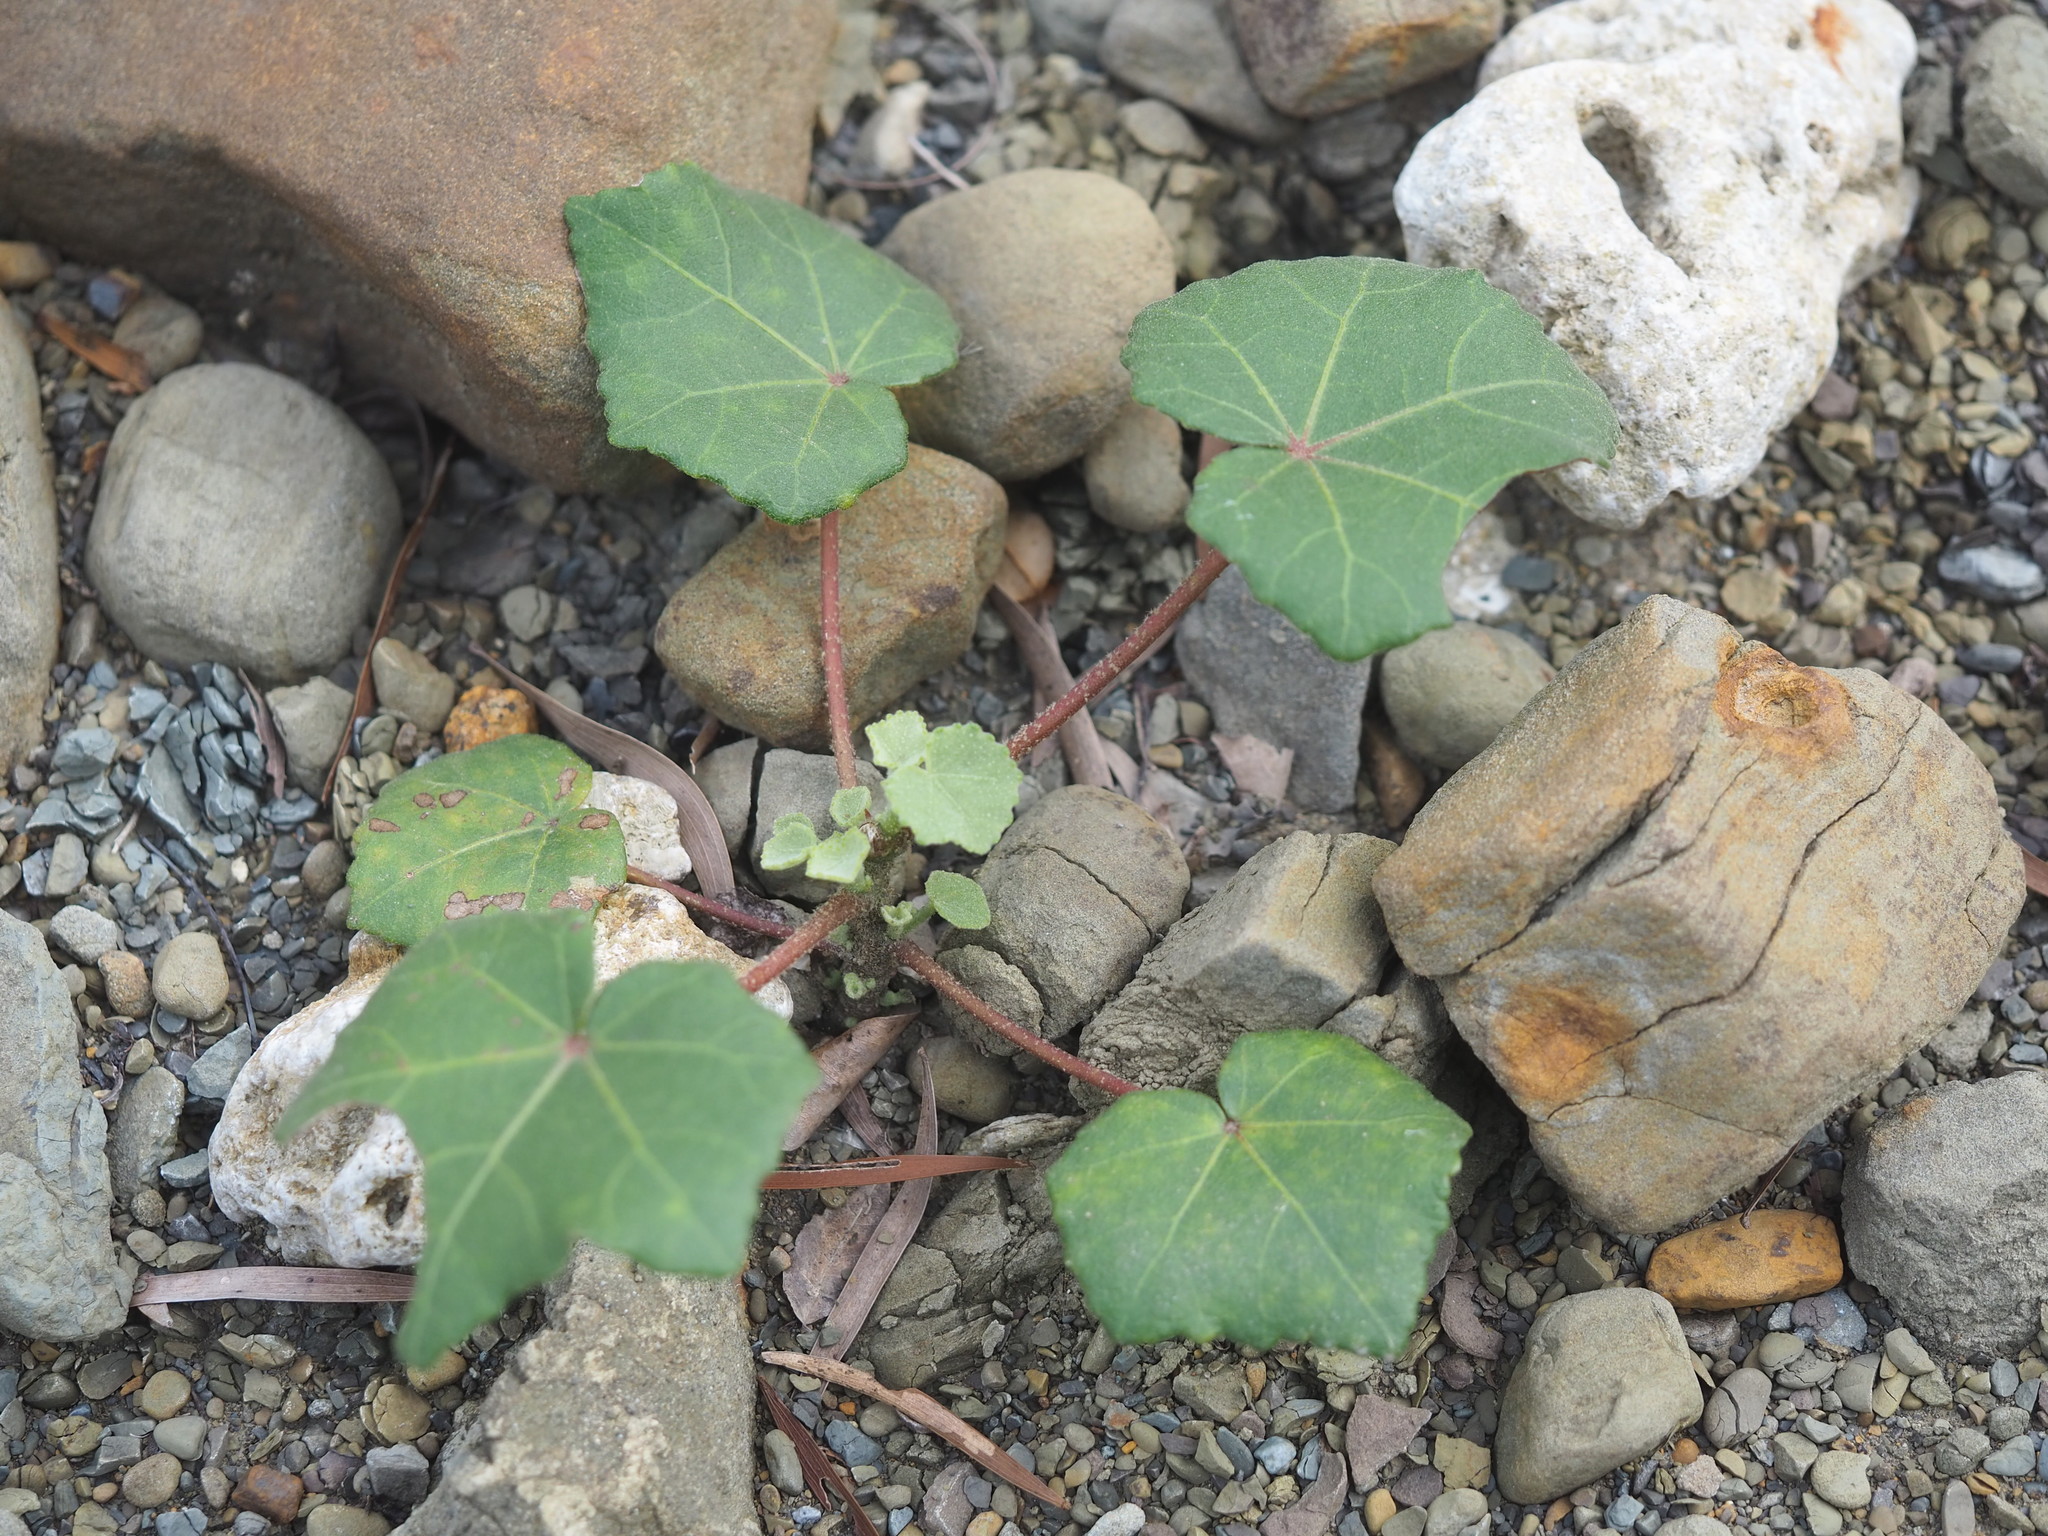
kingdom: Plantae
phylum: Tracheophyta
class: Magnoliopsida
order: Malvales
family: Malvaceae
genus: Hibiscus
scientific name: Hibiscus taiwanensis
